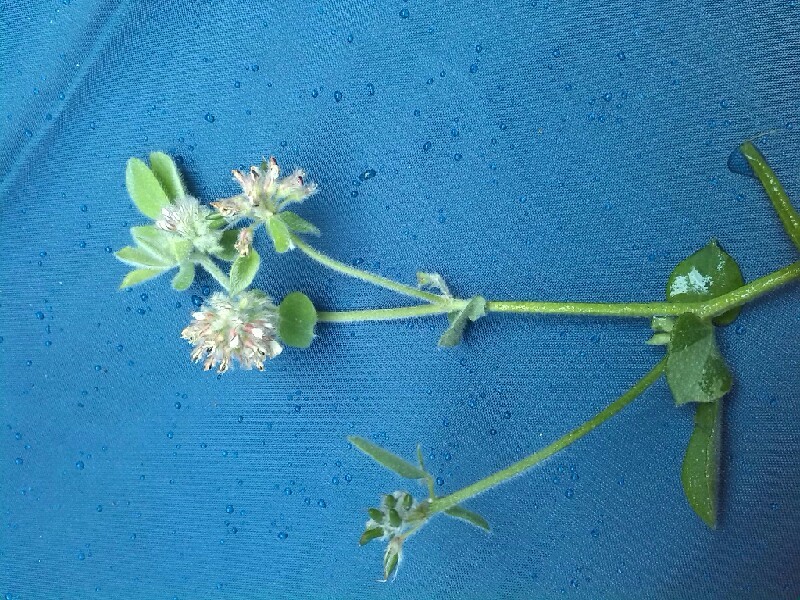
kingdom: Plantae
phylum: Tracheophyta
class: Magnoliopsida
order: Fabales
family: Fabaceae
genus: Lotus
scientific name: Lotus rectus
